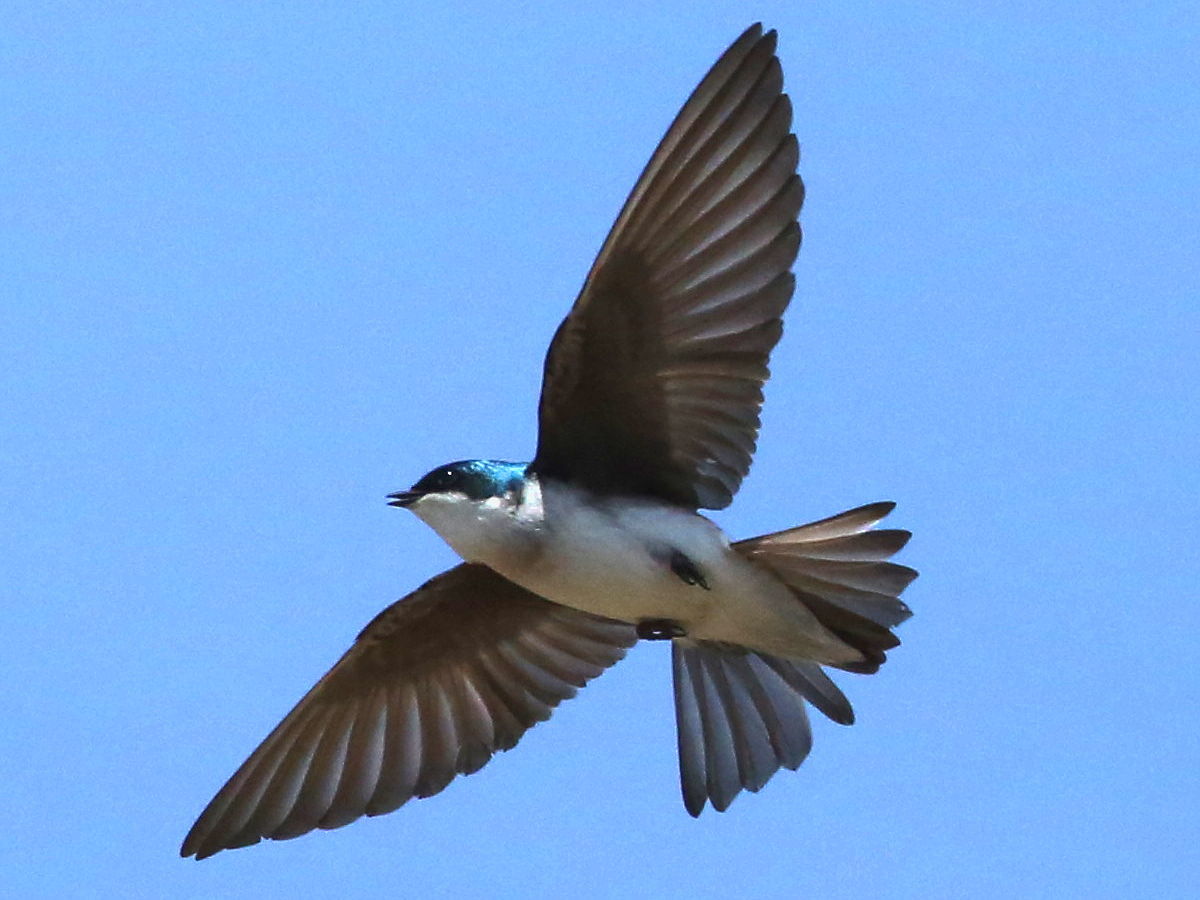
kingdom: Animalia
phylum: Chordata
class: Aves
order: Passeriformes
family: Hirundinidae
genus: Tachycineta
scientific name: Tachycineta bicolor
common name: Tree swallow
